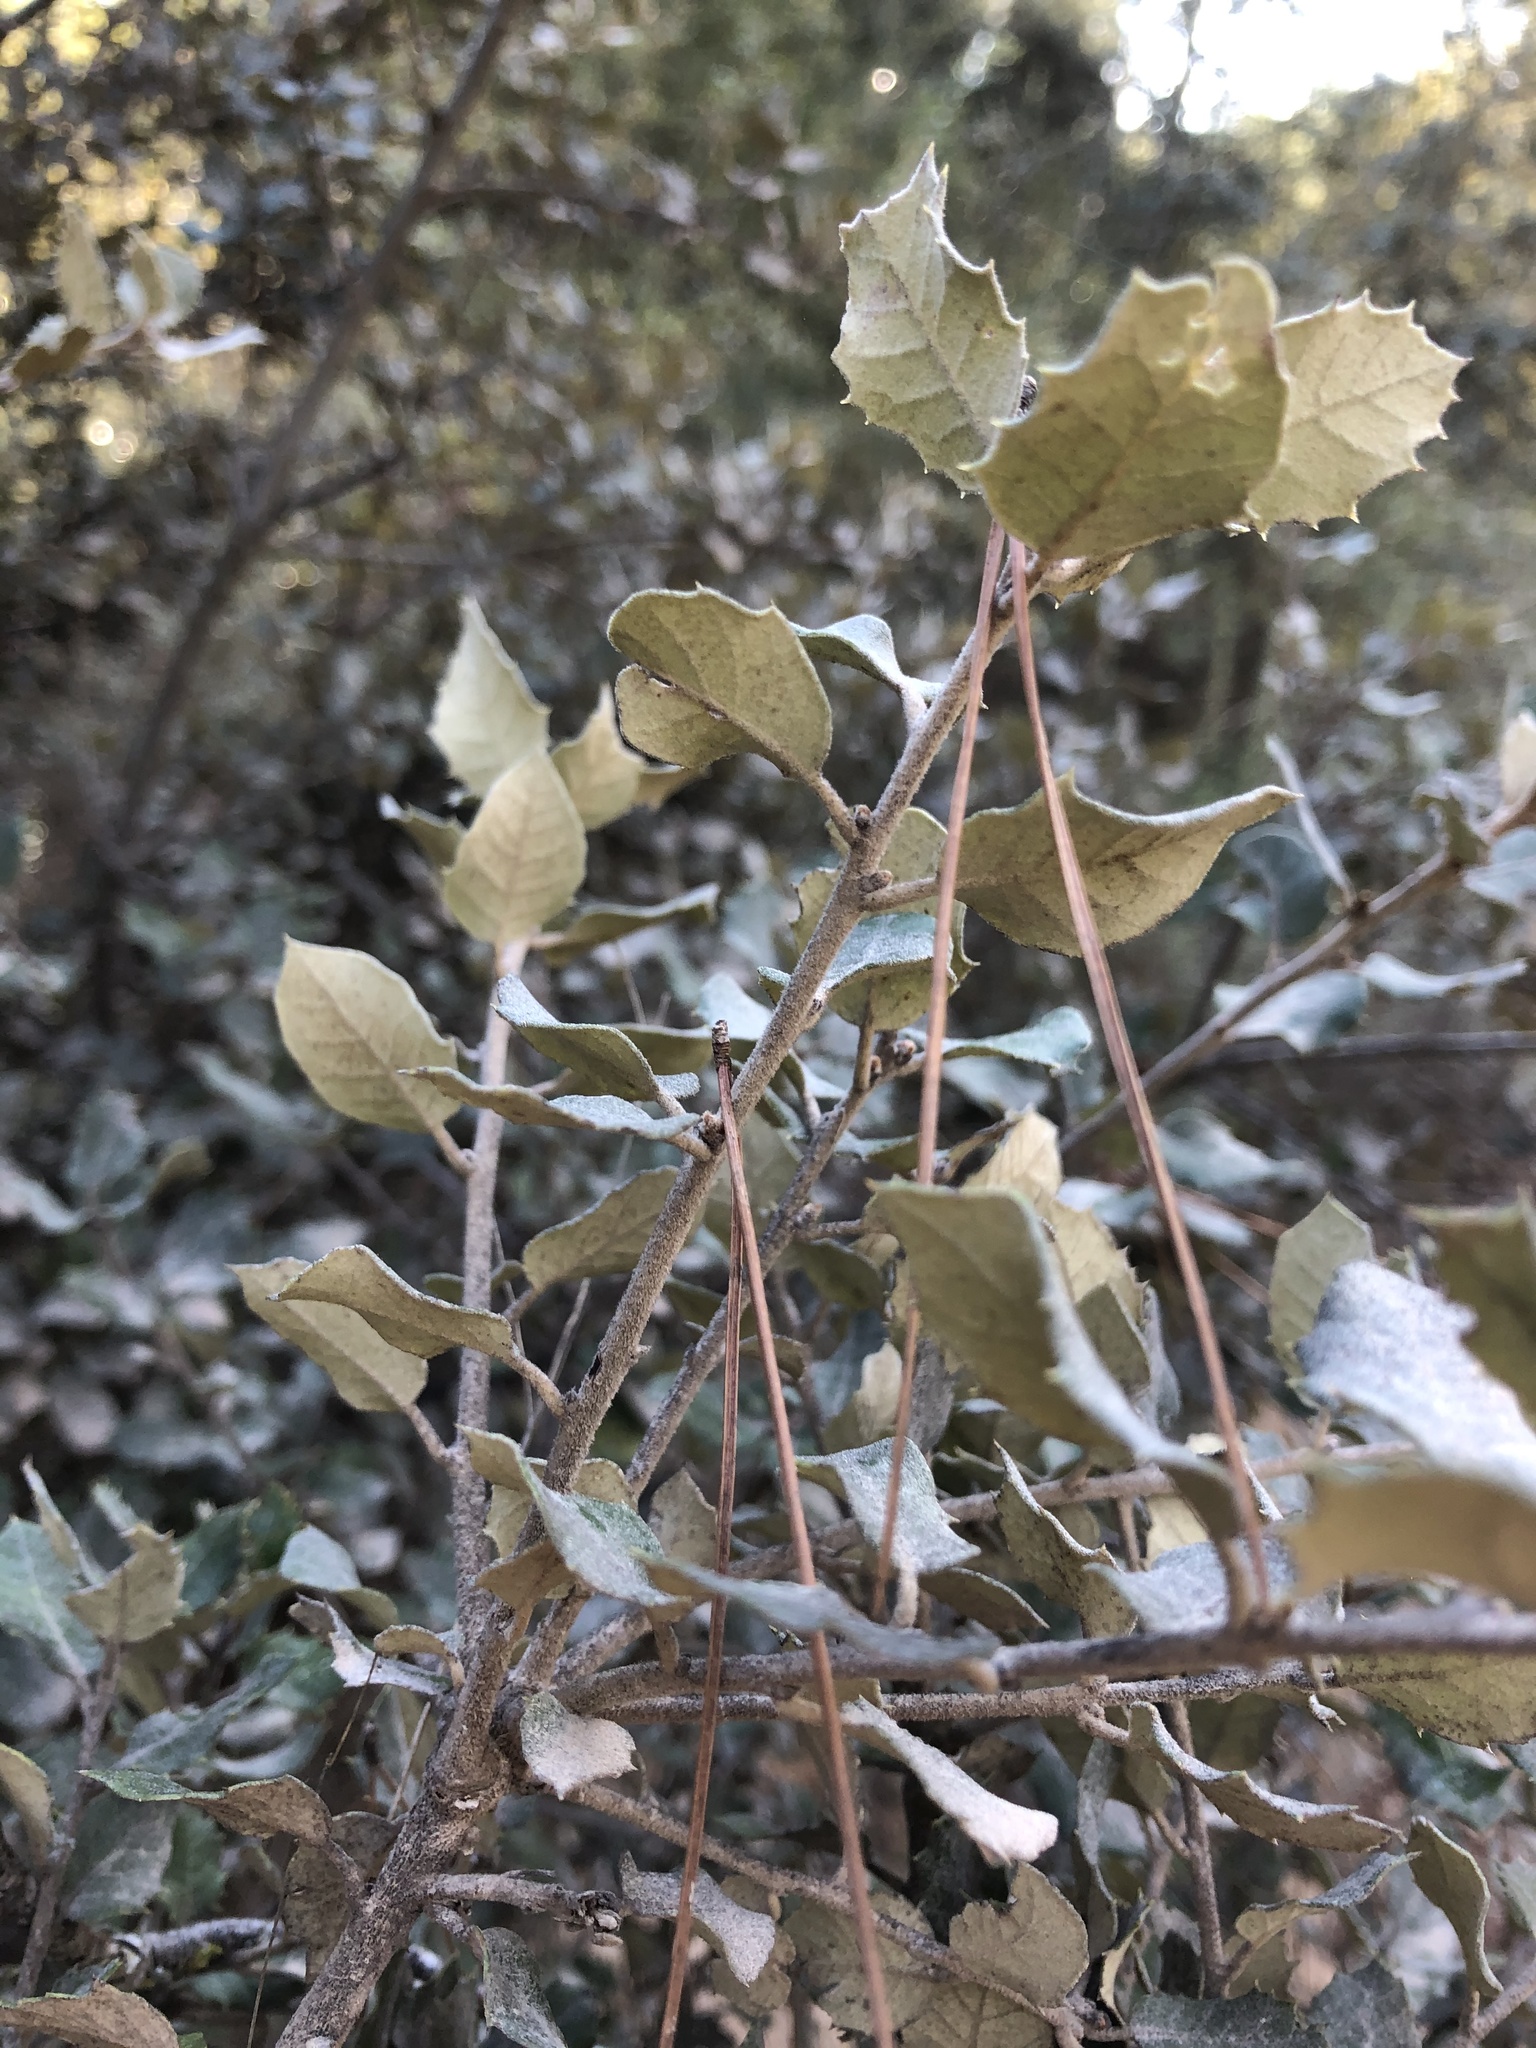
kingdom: Plantae
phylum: Tracheophyta
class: Magnoliopsida
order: Fagales
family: Fagaceae
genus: Quercus
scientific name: Quercus rotundifolia
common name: Holm oak
